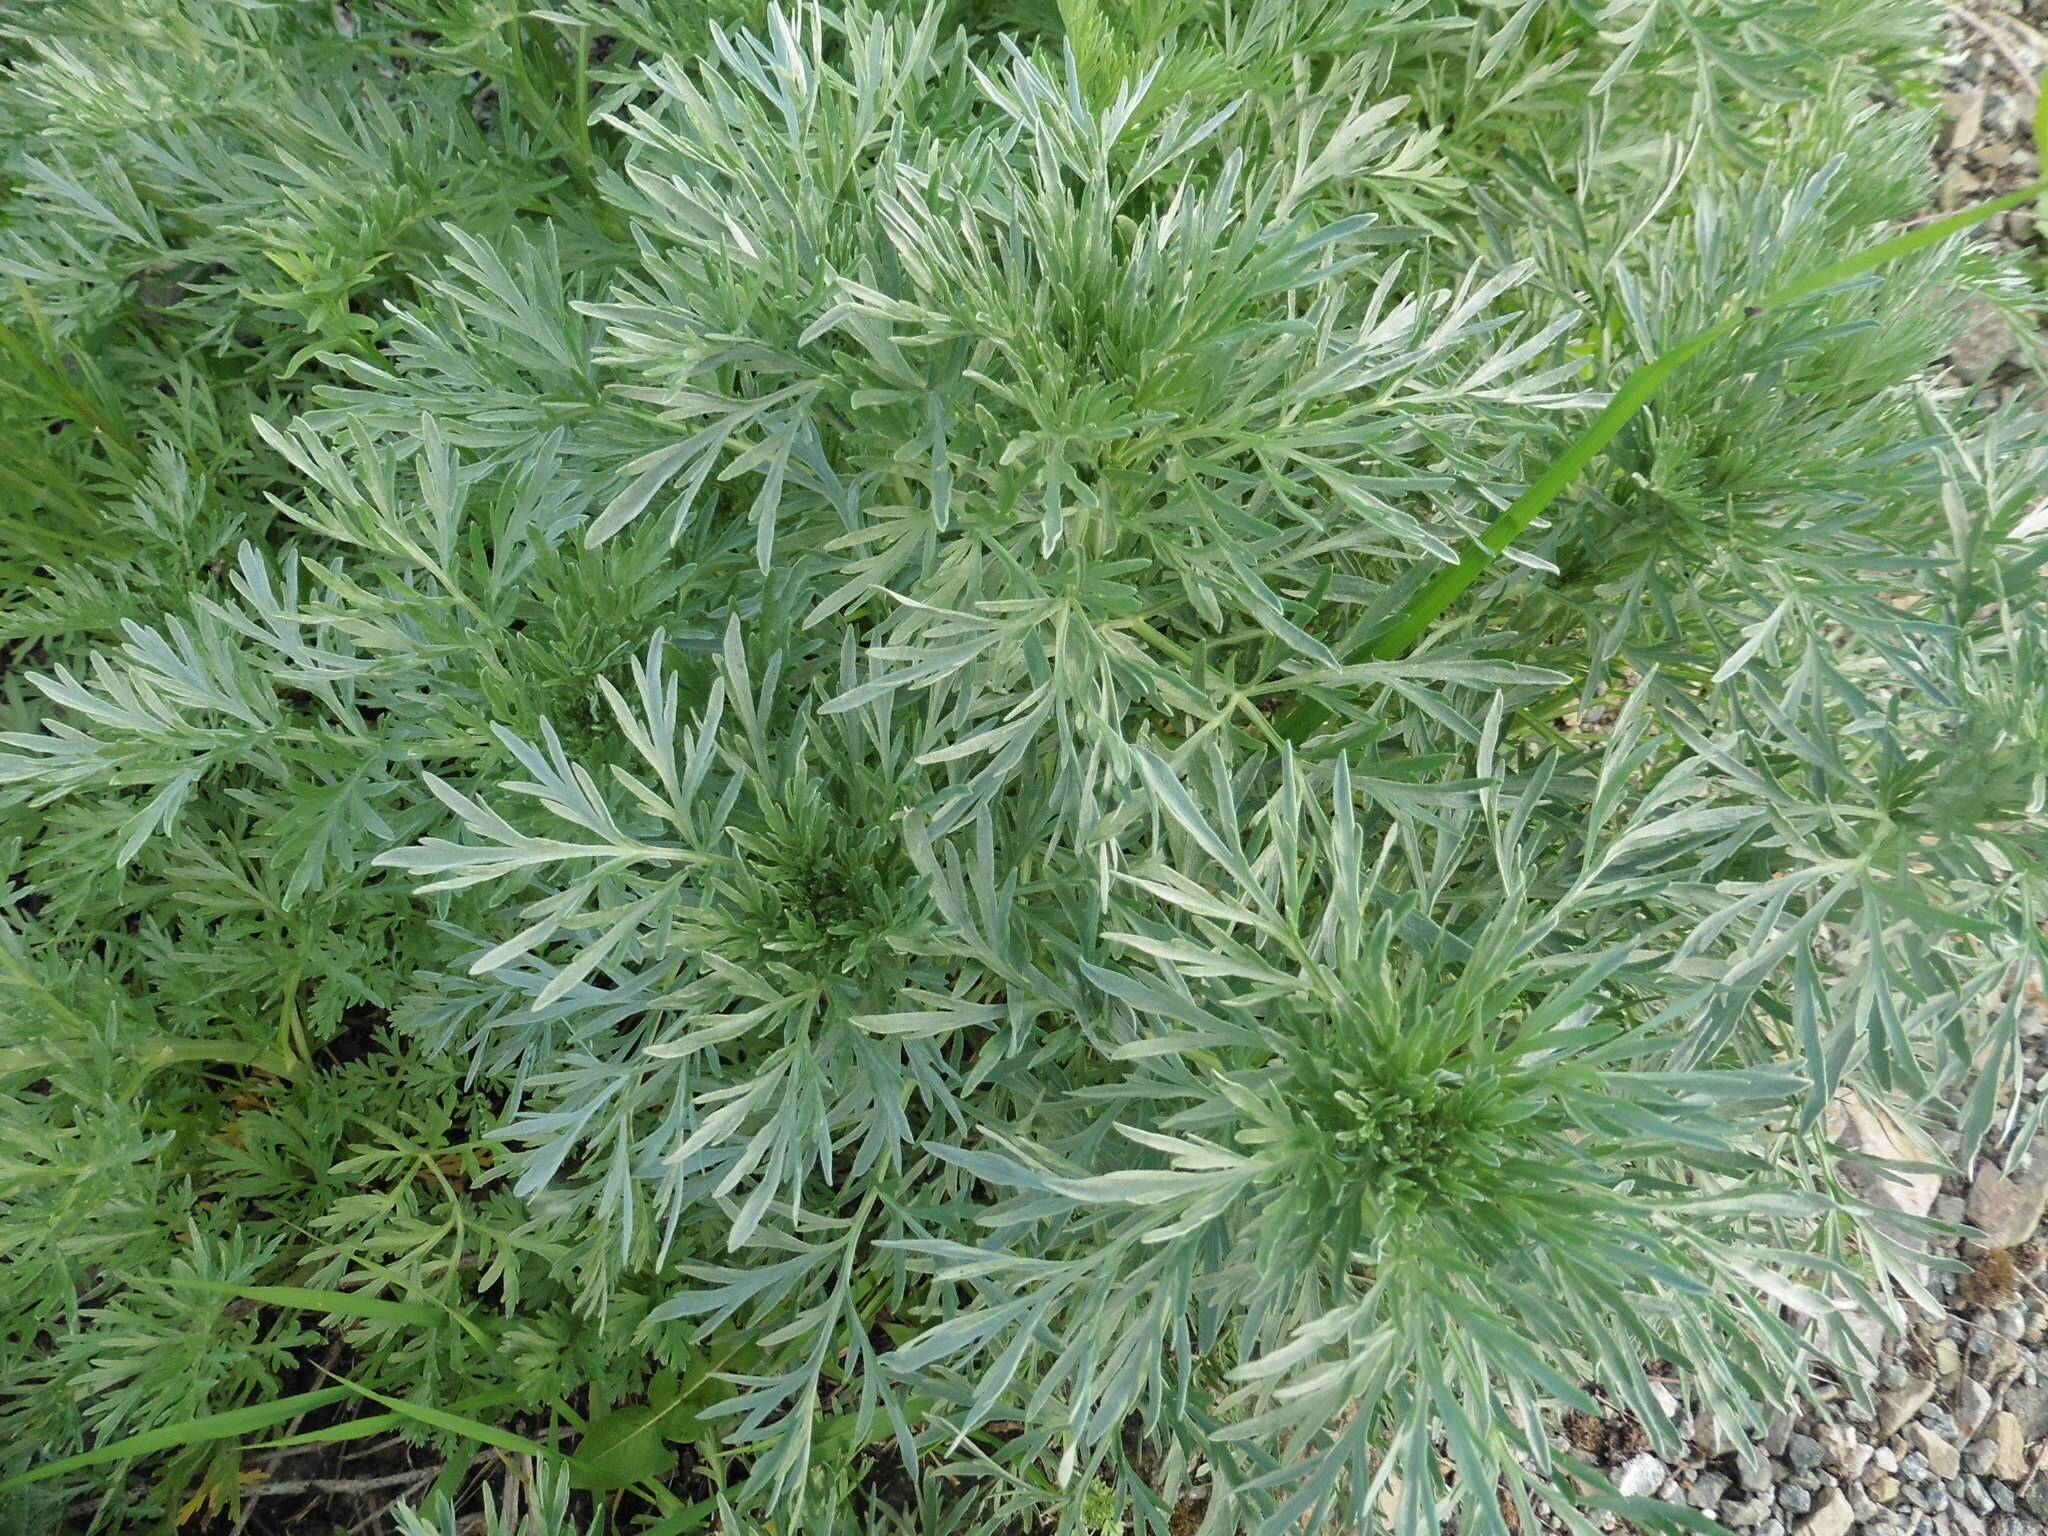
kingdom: Plantae
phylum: Tracheophyta
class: Magnoliopsida
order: Asterales
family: Asteraceae
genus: Artemisia
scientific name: Artemisia absinthium
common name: Wormwood
